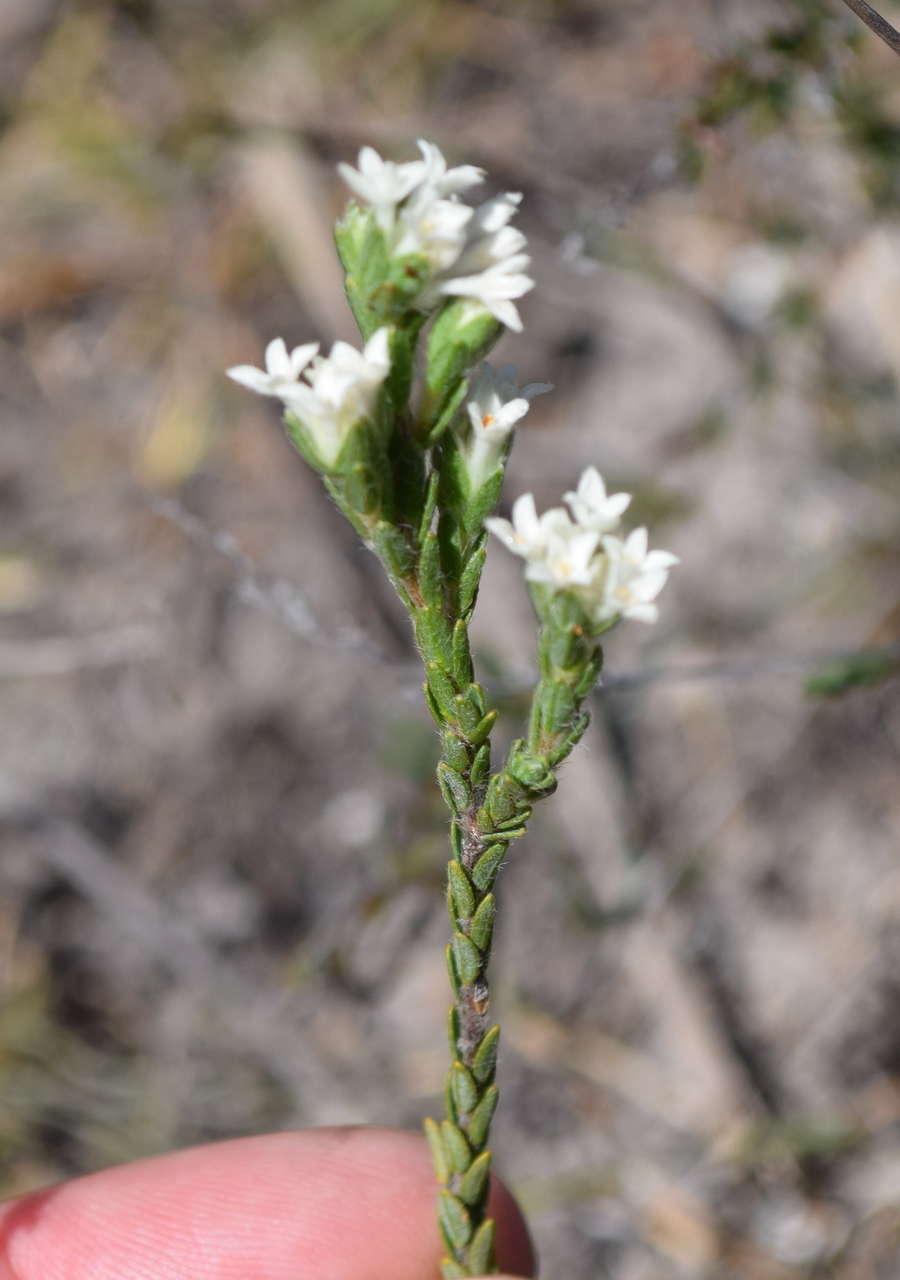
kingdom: Plantae
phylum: Tracheophyta
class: Magnoliopsida
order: Malvales
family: Thymelaeaceae
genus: Pimelea
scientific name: Pimelea phylicoides
